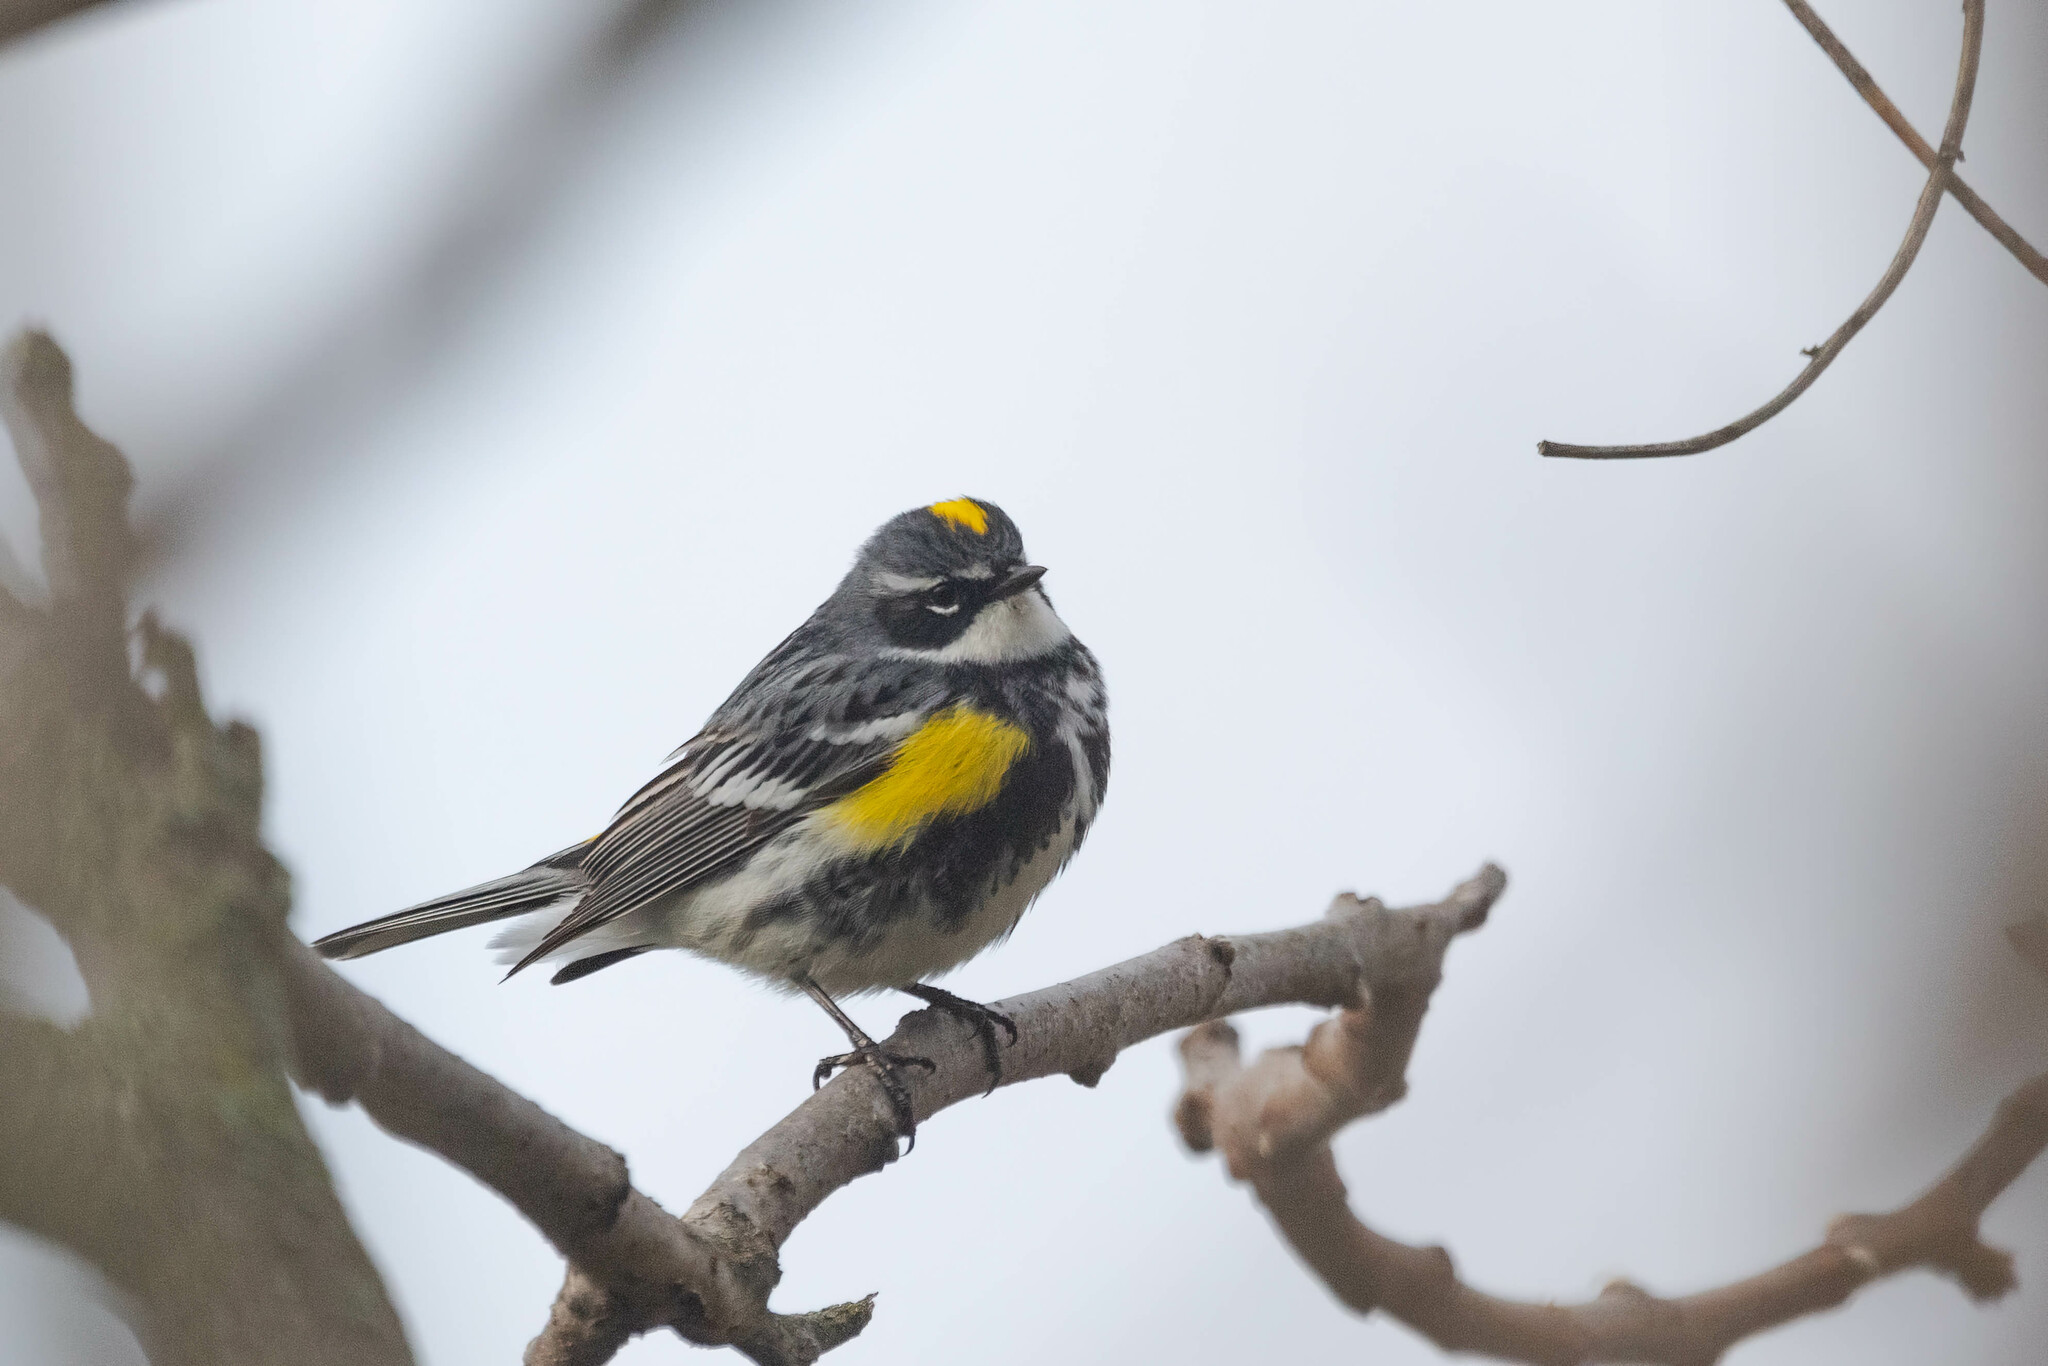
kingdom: Animalia
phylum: Chordata
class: Aves
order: Passeriformes
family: Parulidae
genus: Setophaga
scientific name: Setophaga coronata
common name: Myrtle warbler
